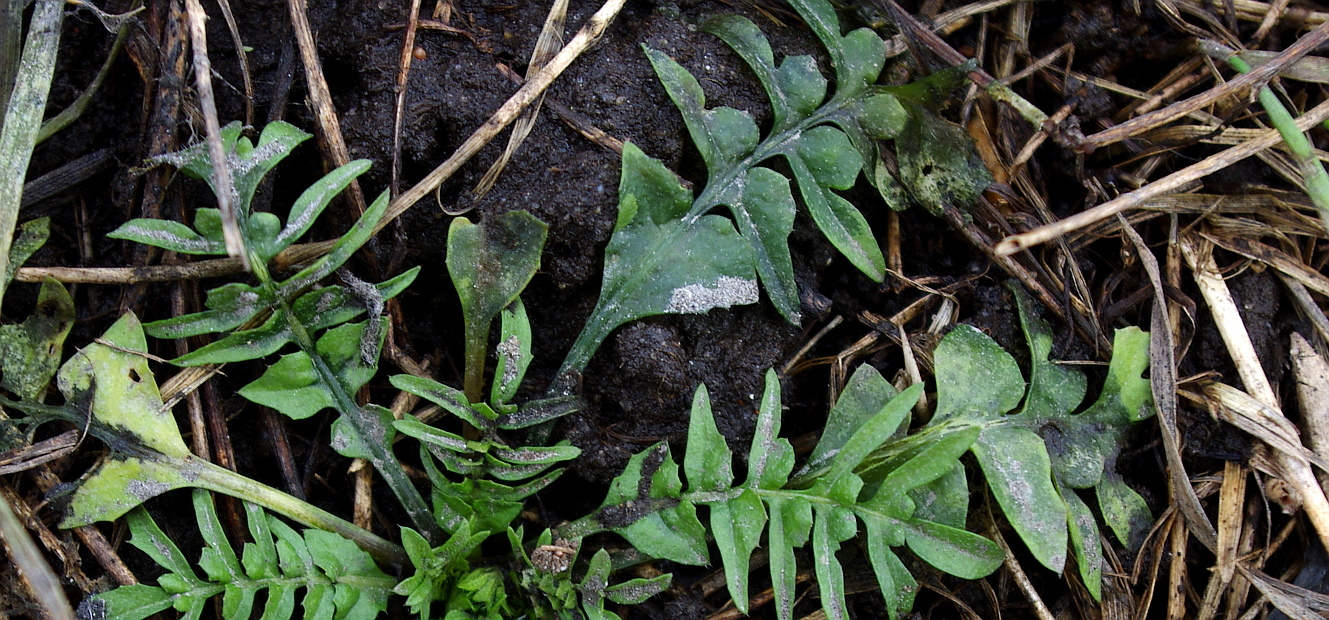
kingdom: Plantae
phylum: Tracheophyta
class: Magnoliopsida
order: Brassicales
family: Brassicaceae
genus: Capsella
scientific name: Capsella bursa-pastoris
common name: Shepherd's purse
